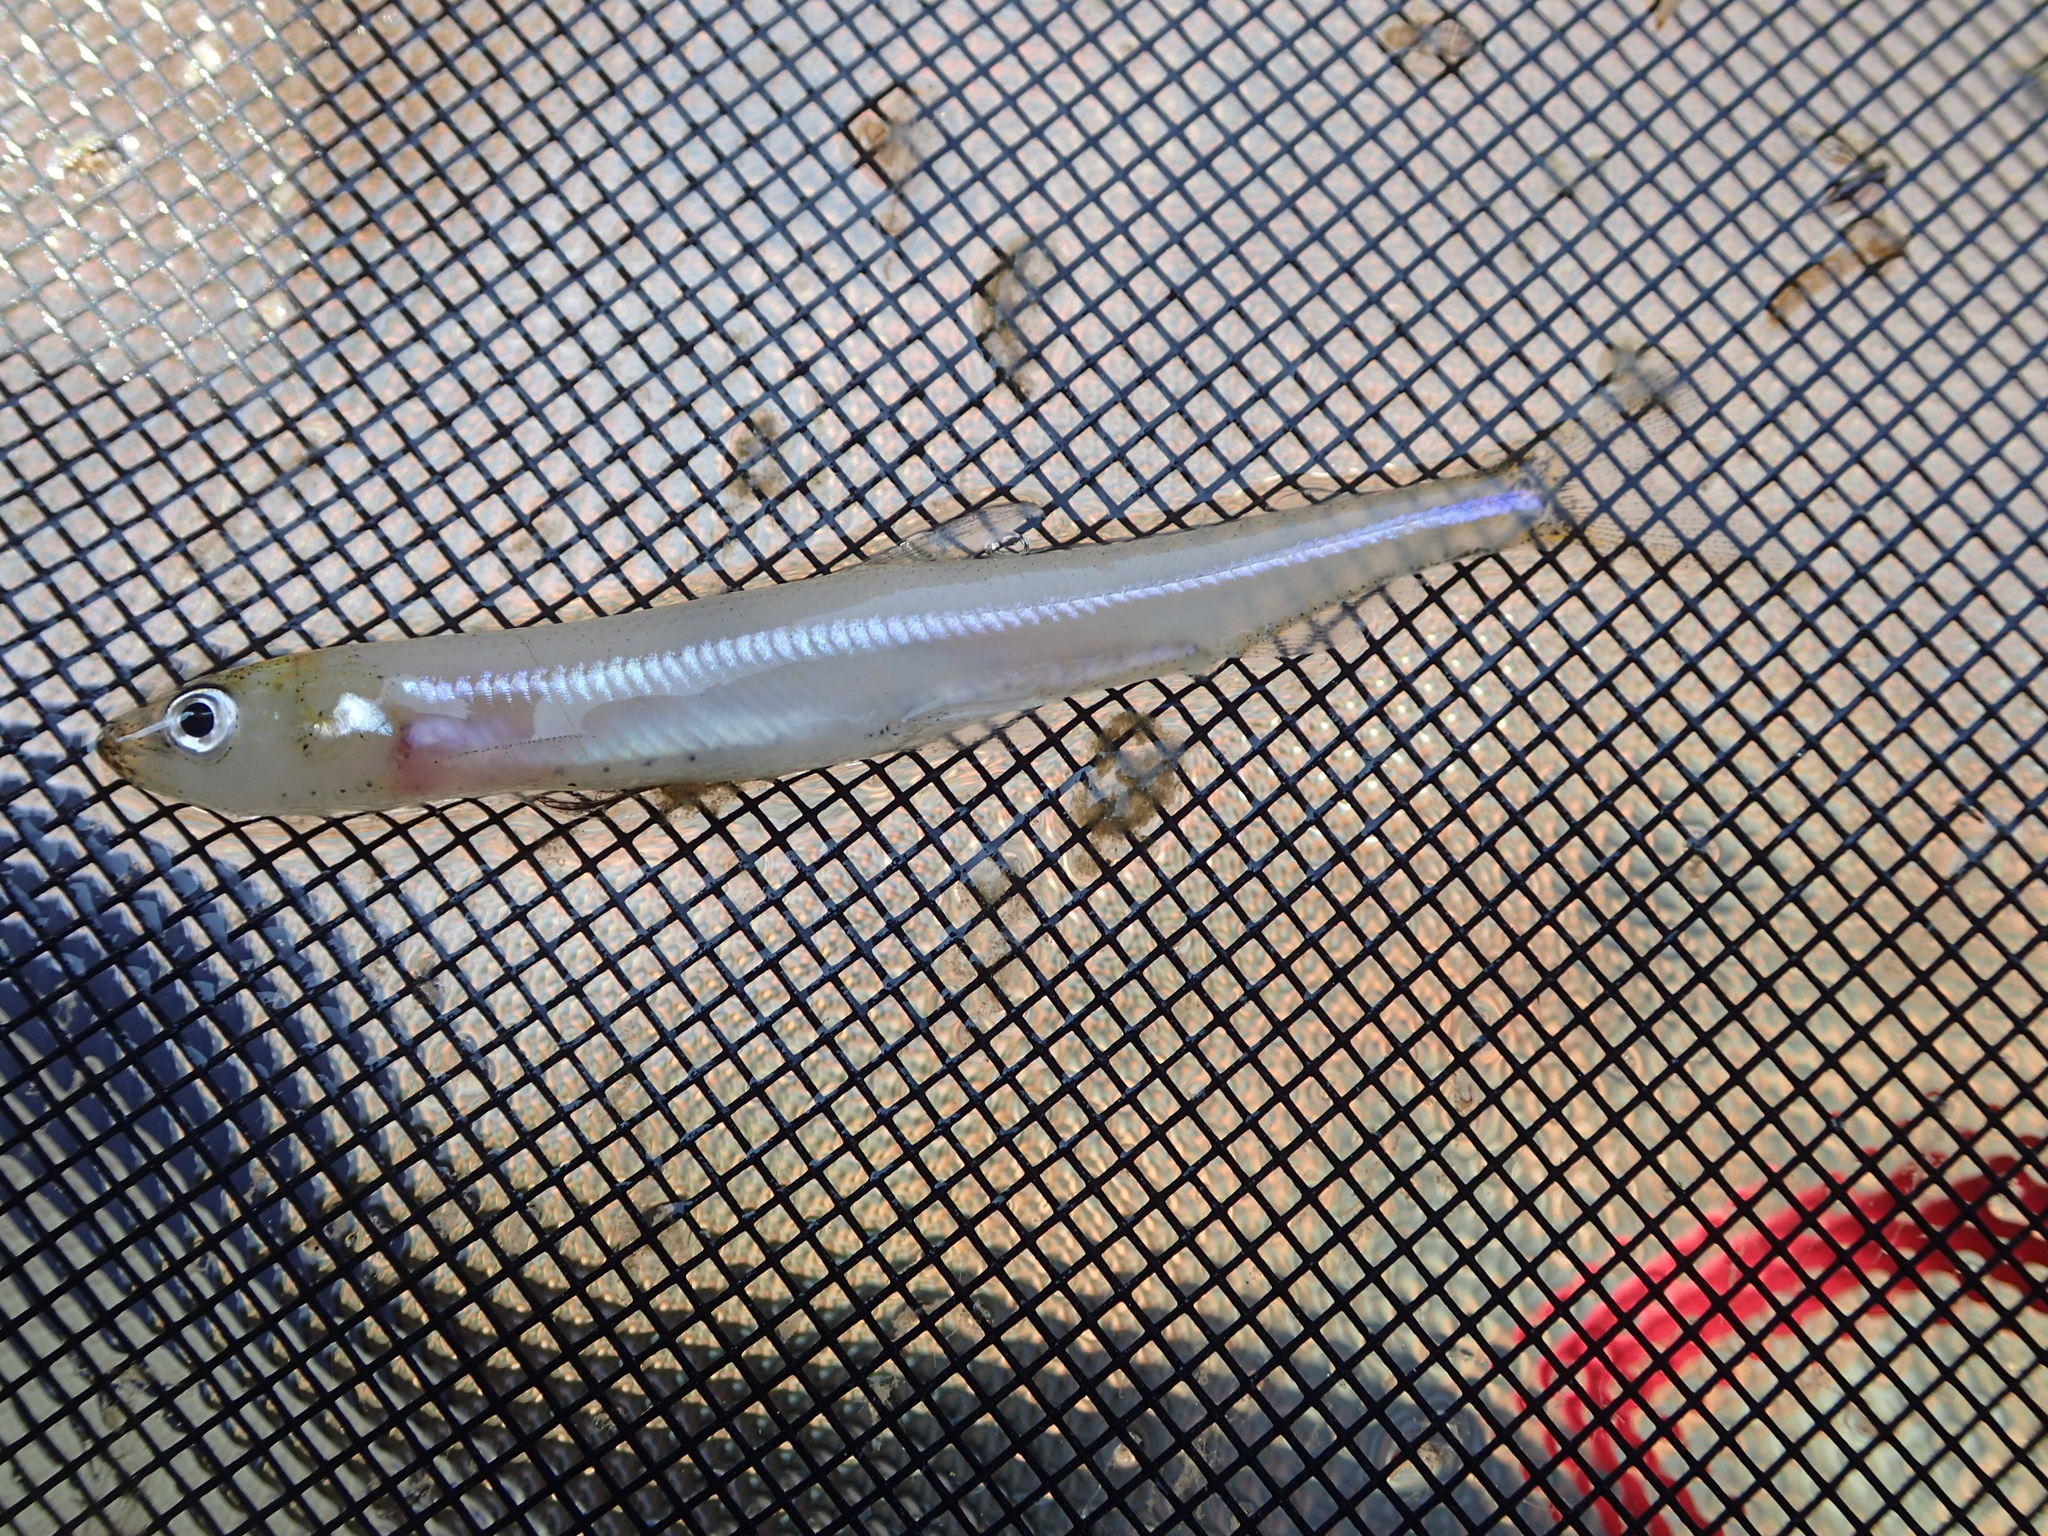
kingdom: Animalia
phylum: Chordata
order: Osmeriformes
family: Osmeridae
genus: Osmerus
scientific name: Osmerus mordax
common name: Rainbow smelt
